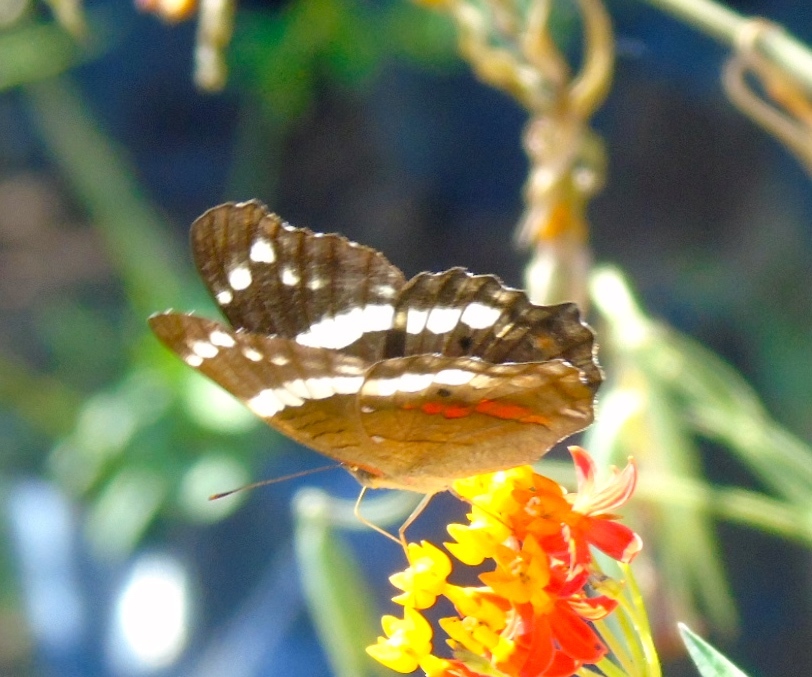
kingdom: Animalia
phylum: Arthropoda
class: Insecta
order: Lepidoptera
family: Nymphalidae
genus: Anartia
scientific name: Anartia fatima
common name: Banded peacock
